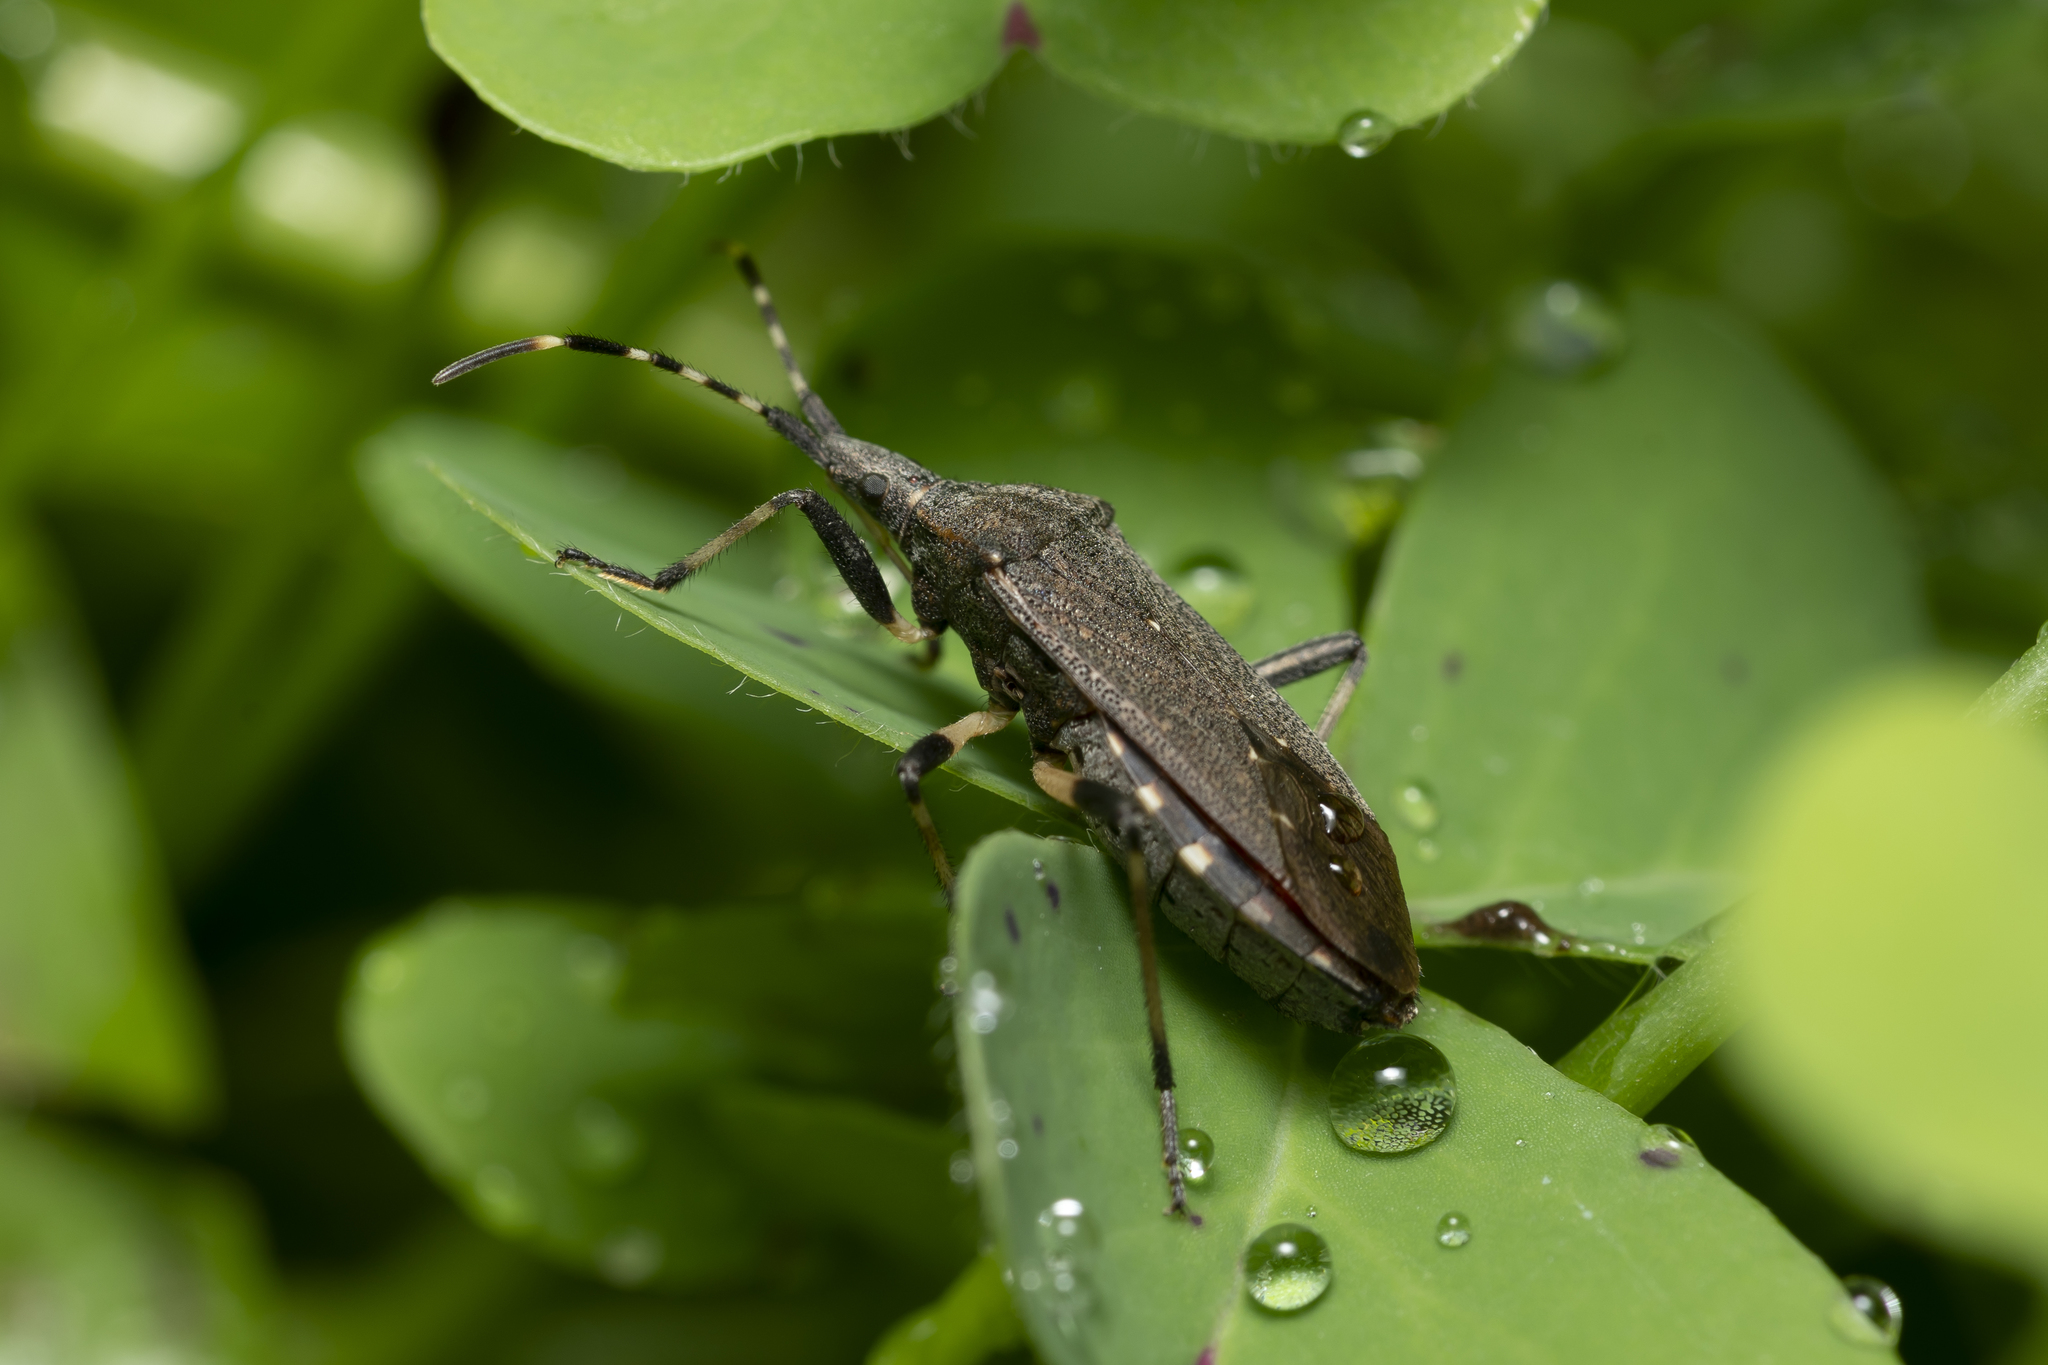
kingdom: Animalia
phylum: Arthropoda
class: Insecta
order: Hemiptera
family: Stenocephalidae
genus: Dicranocephalus
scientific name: Dicranocephalus agilis
